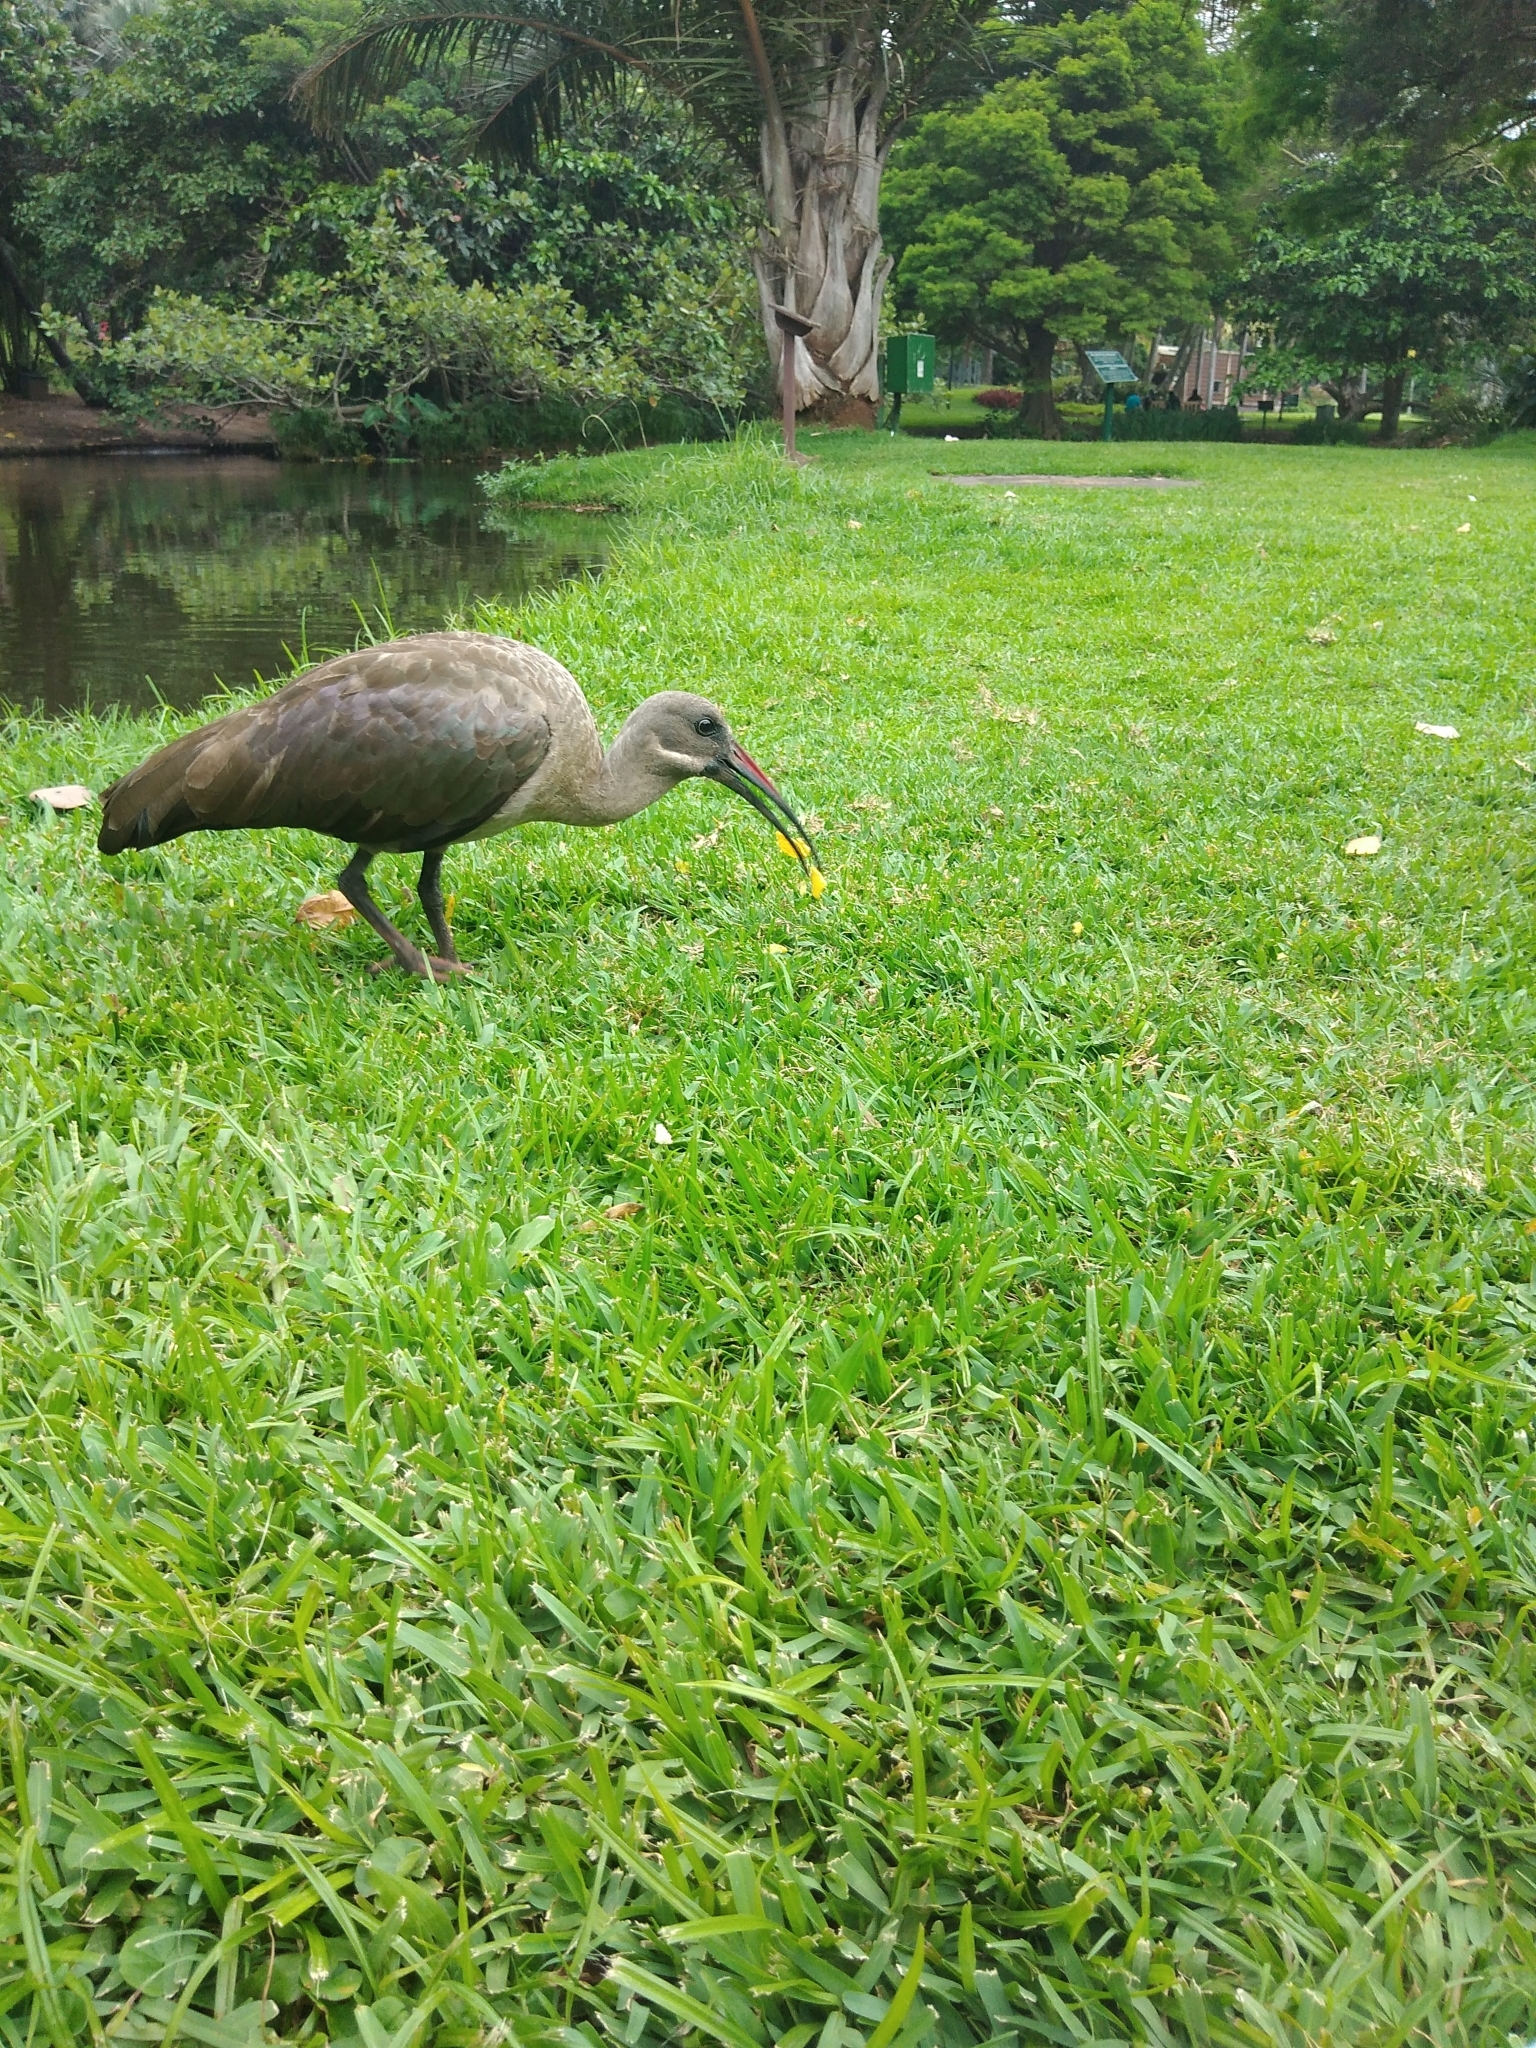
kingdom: Animalia
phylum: Chordata
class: Aves
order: Pelecaniformes
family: Threskiornithidae
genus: Bostrychia
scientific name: Bostrychia hagedash
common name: Hadada ibis
